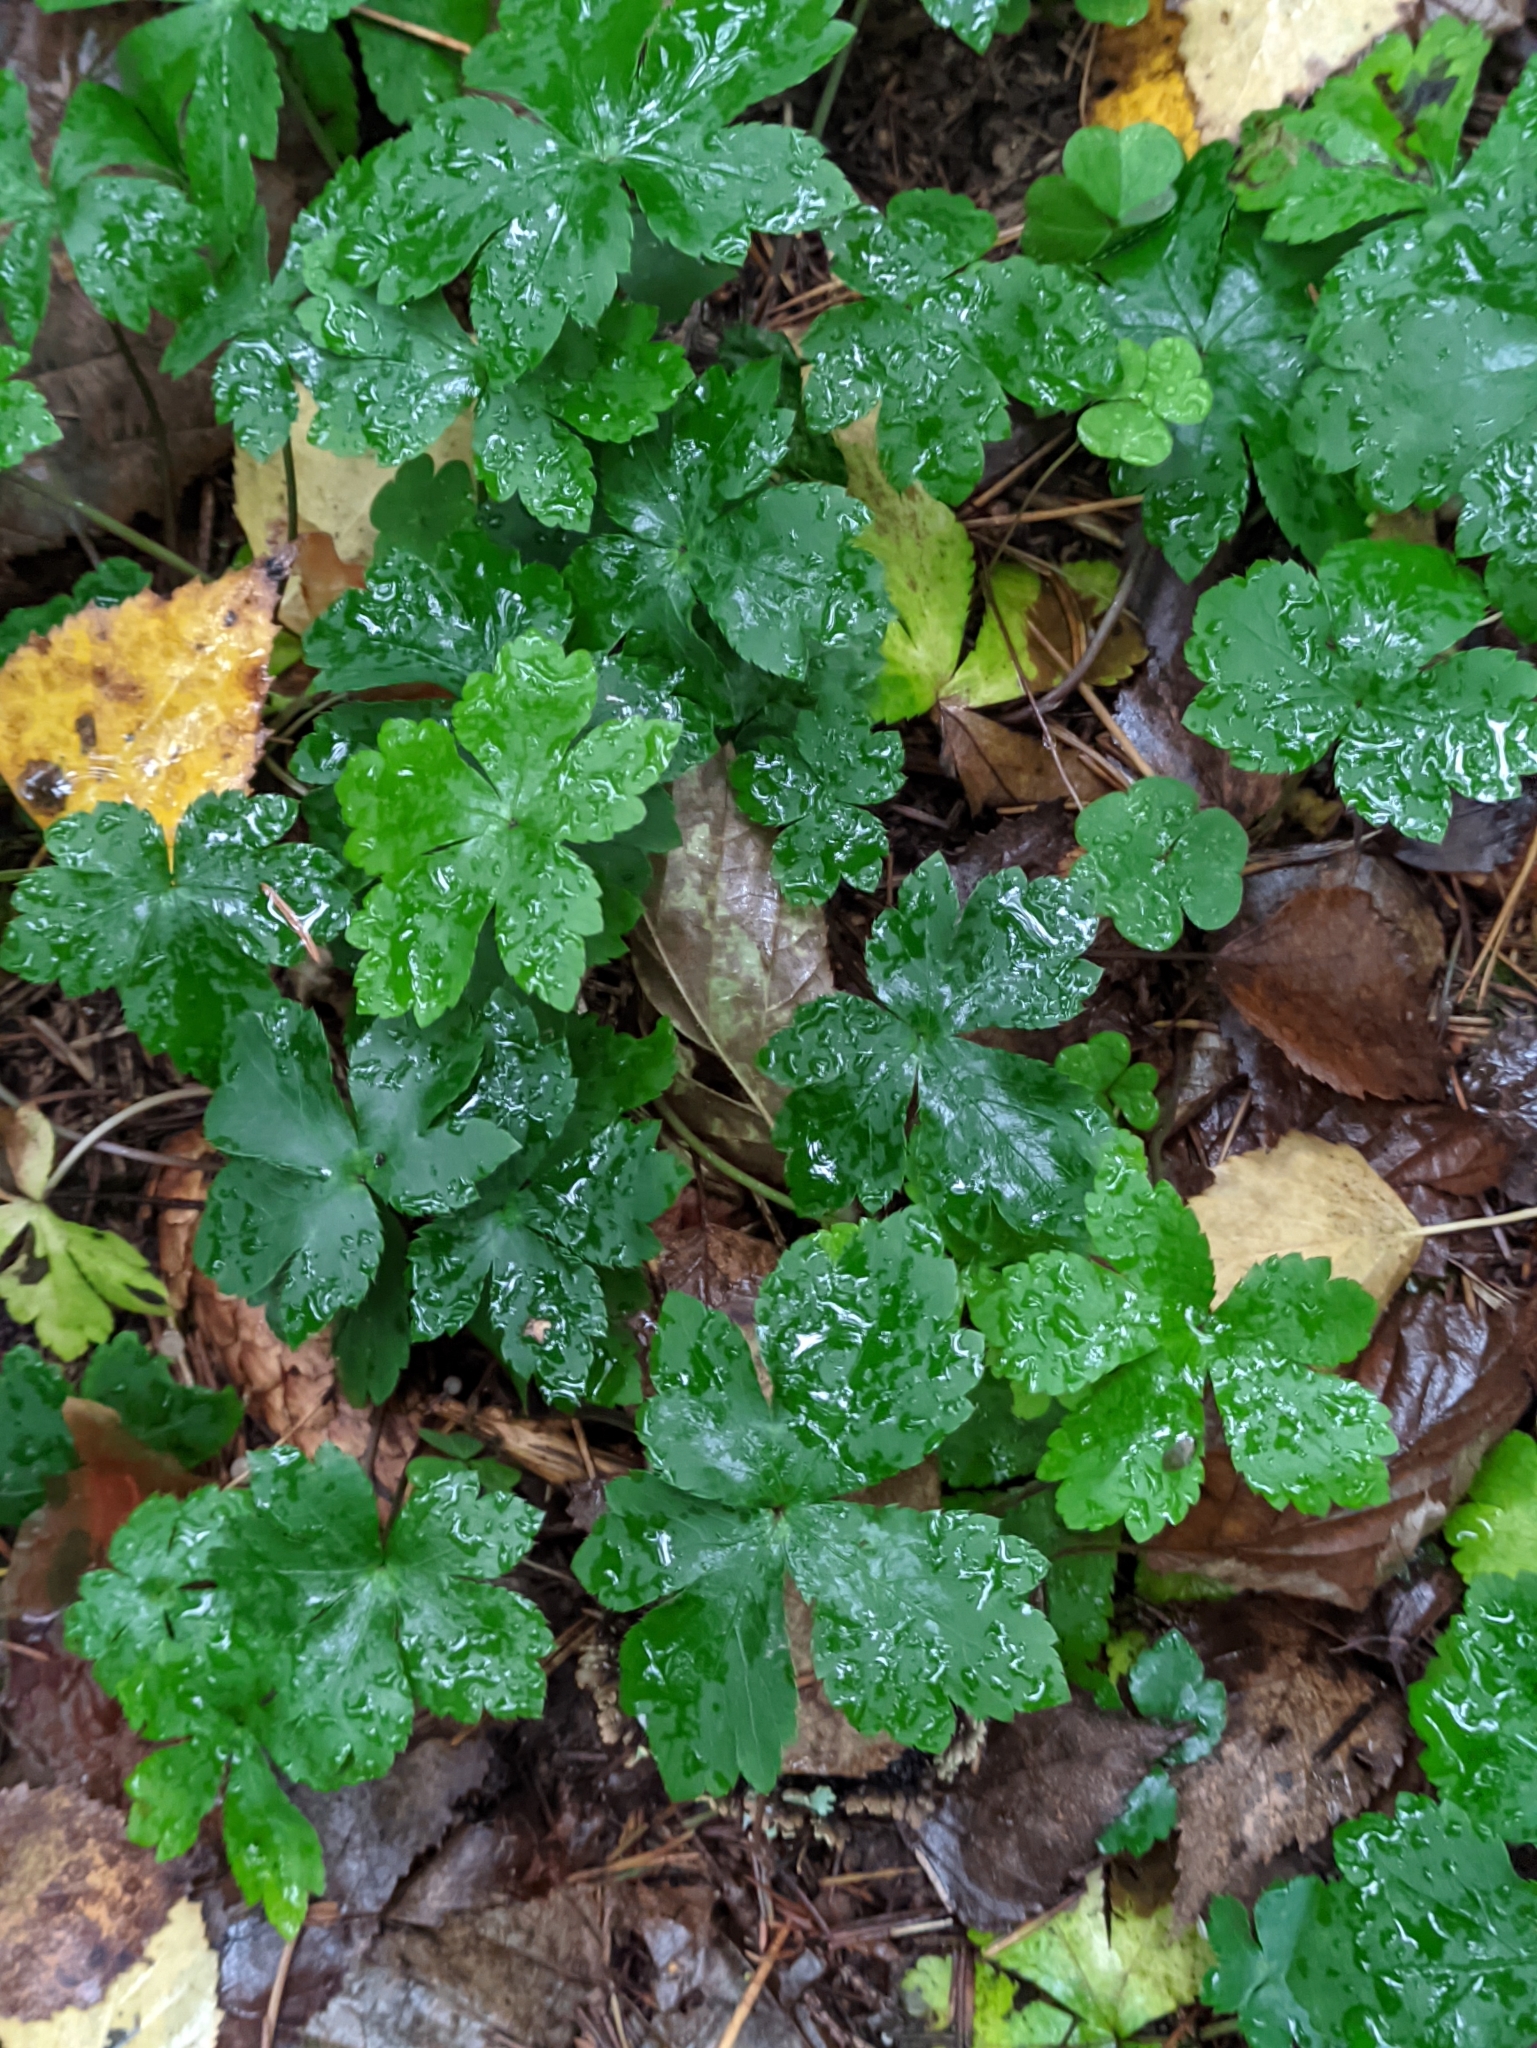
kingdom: Plantae
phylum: Tracheophyta
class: Magnoliopsida
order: Apiales
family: Apiaceae
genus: Sanicula
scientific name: Sanicula europaea
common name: Sanicle
